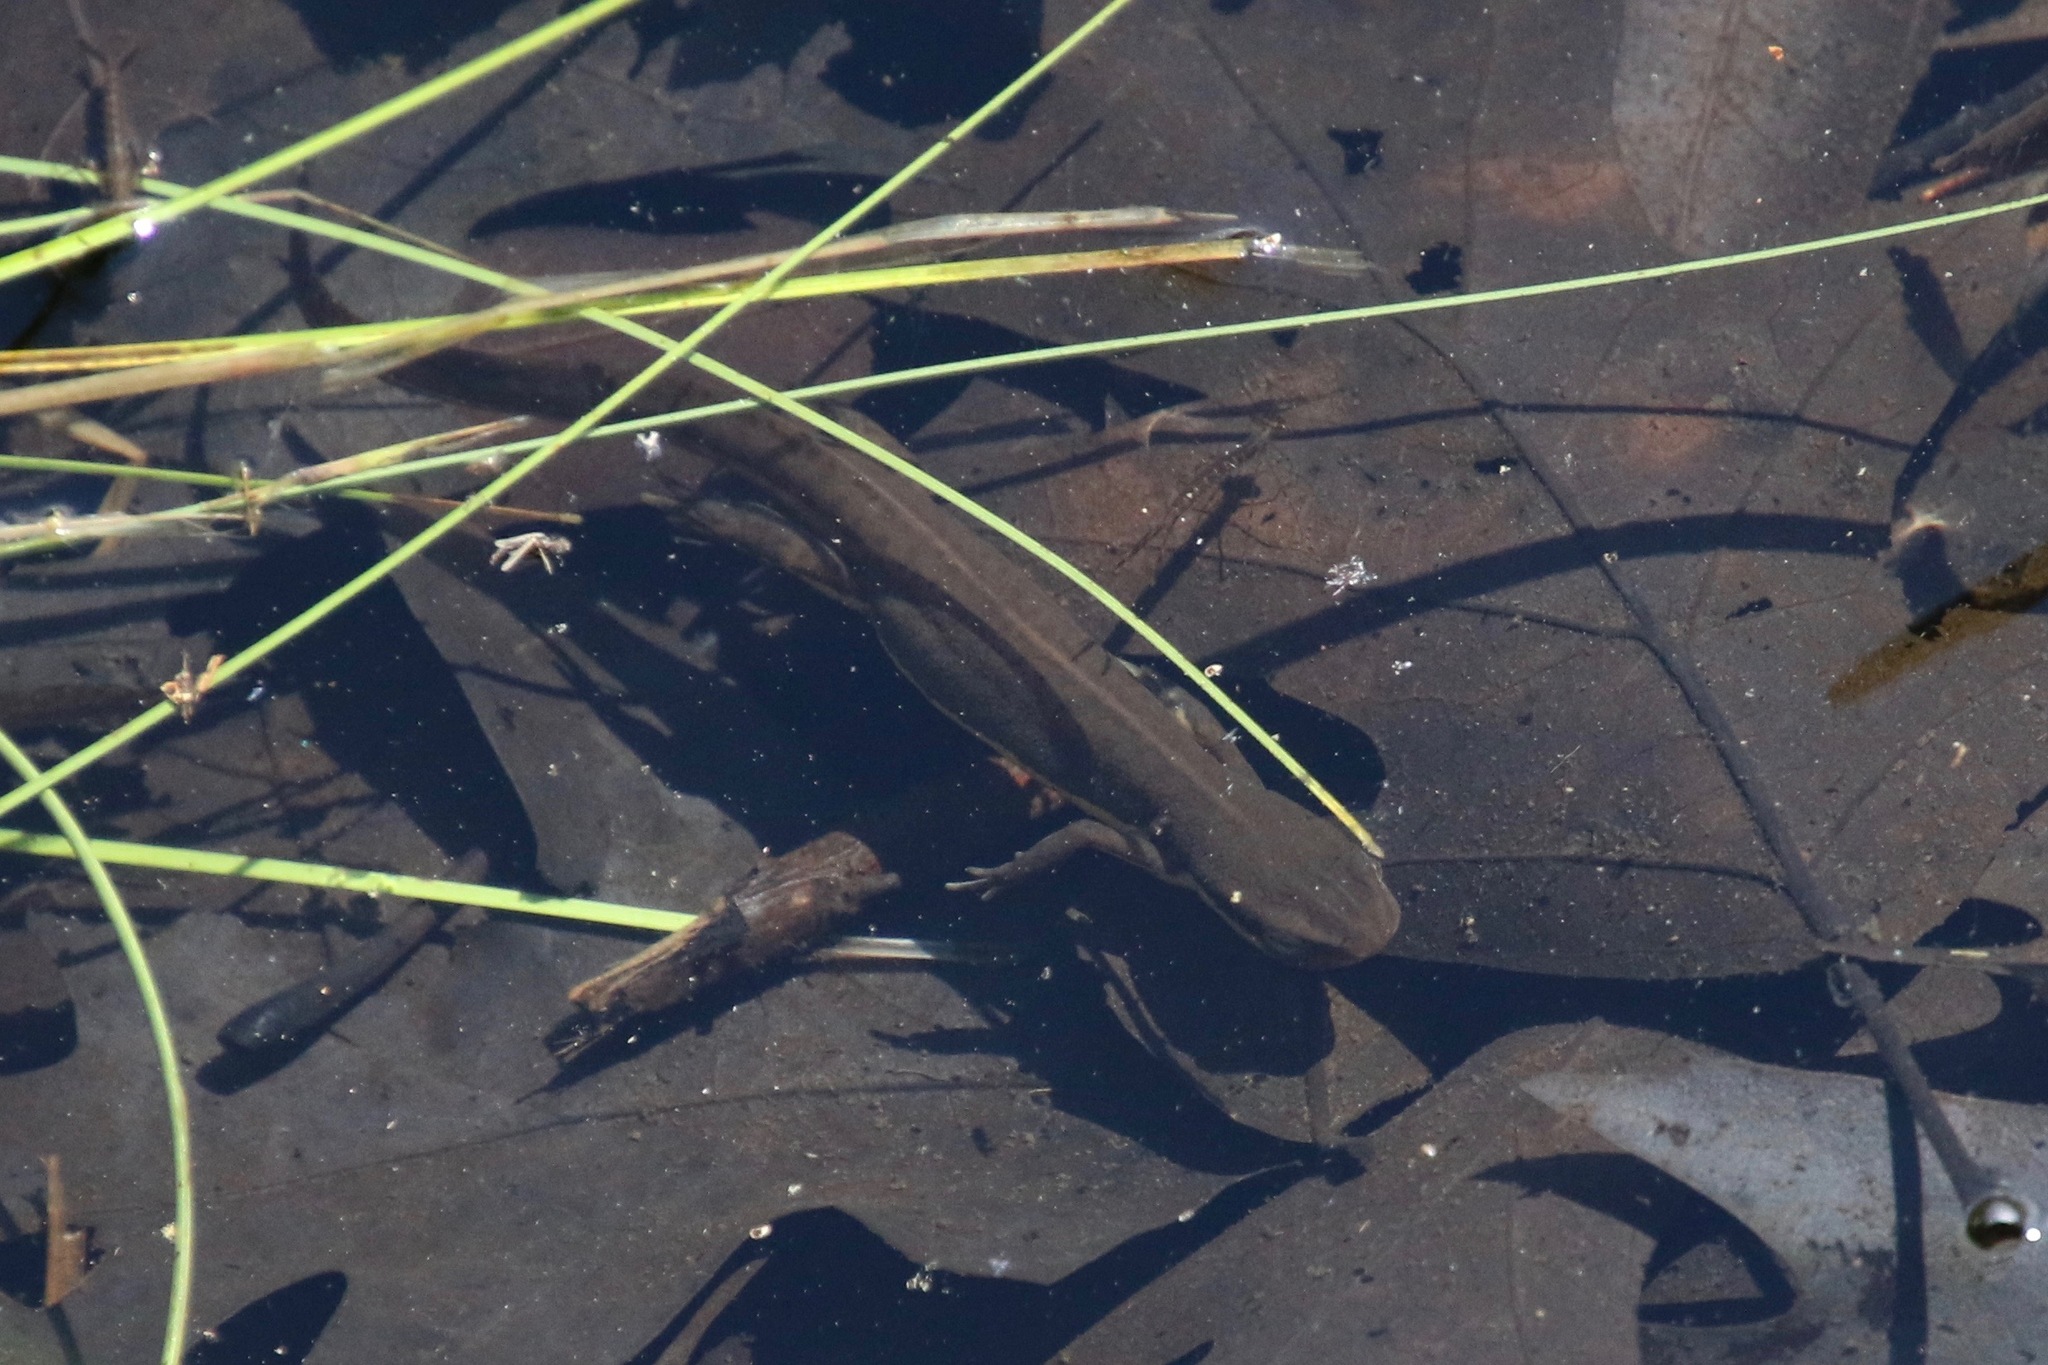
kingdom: Animalia
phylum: Chordata
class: Amphibia
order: Caudata
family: Salamandridae
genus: Notophthalmus
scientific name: Notophthalmus viridescens
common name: Eastern newt
